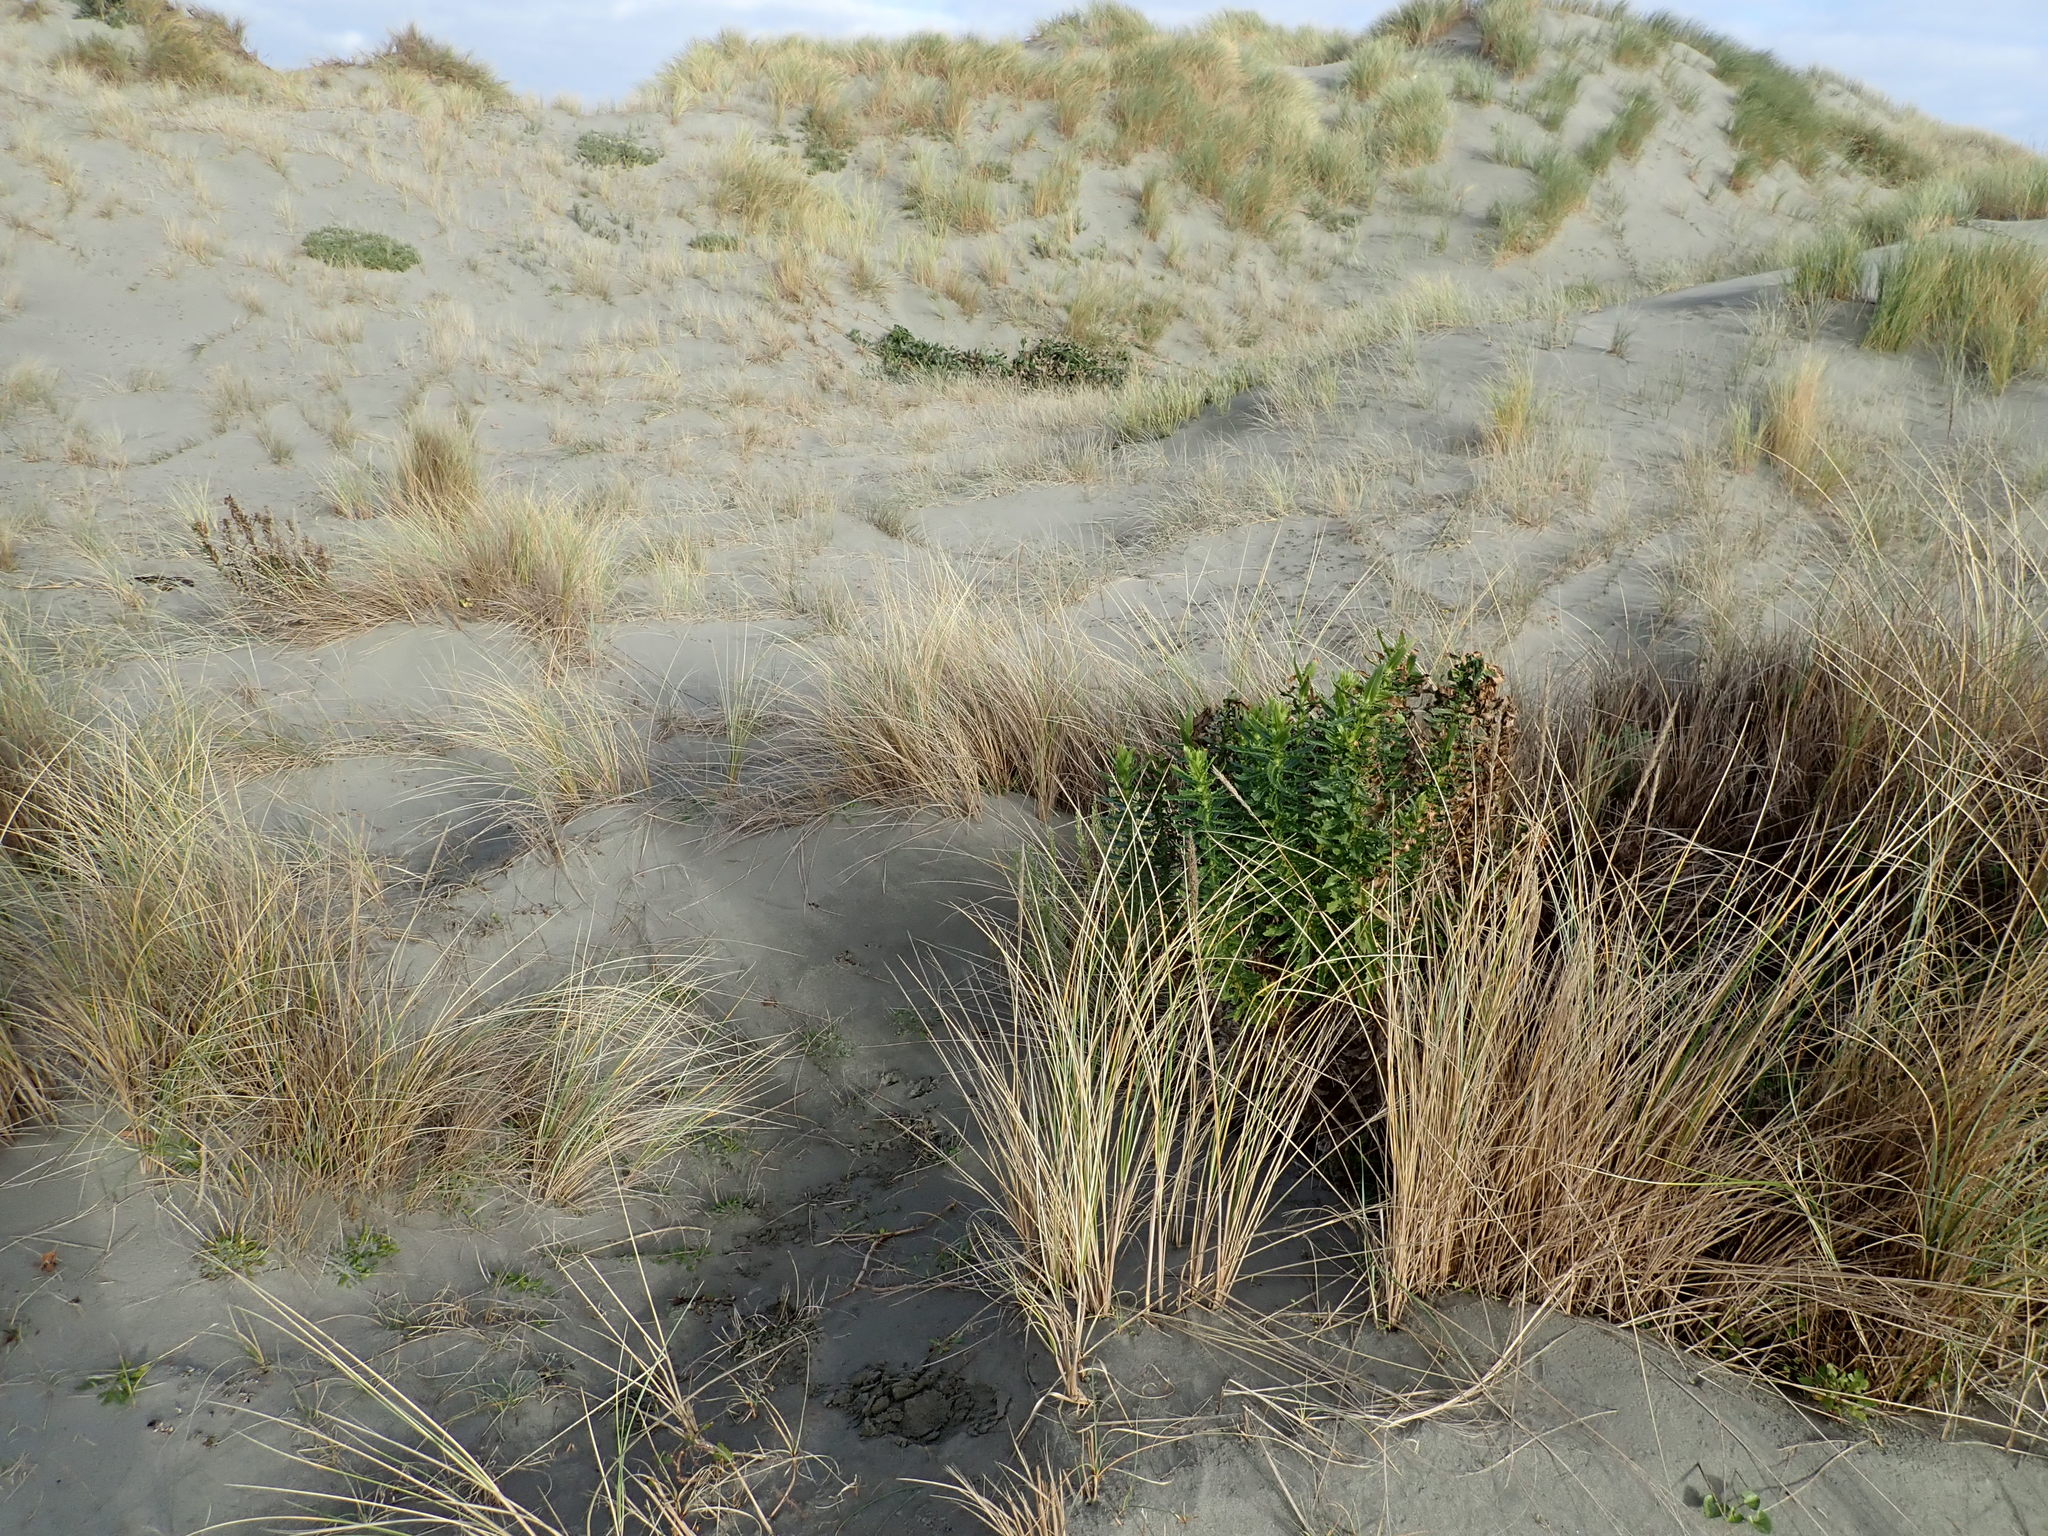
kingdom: Plantae
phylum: Tracheophyta
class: Magnoliopsida
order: Asterales
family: Asteraceae
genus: Senecio
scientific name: Senecio glastifolius
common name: Woad-leaved ragwort
